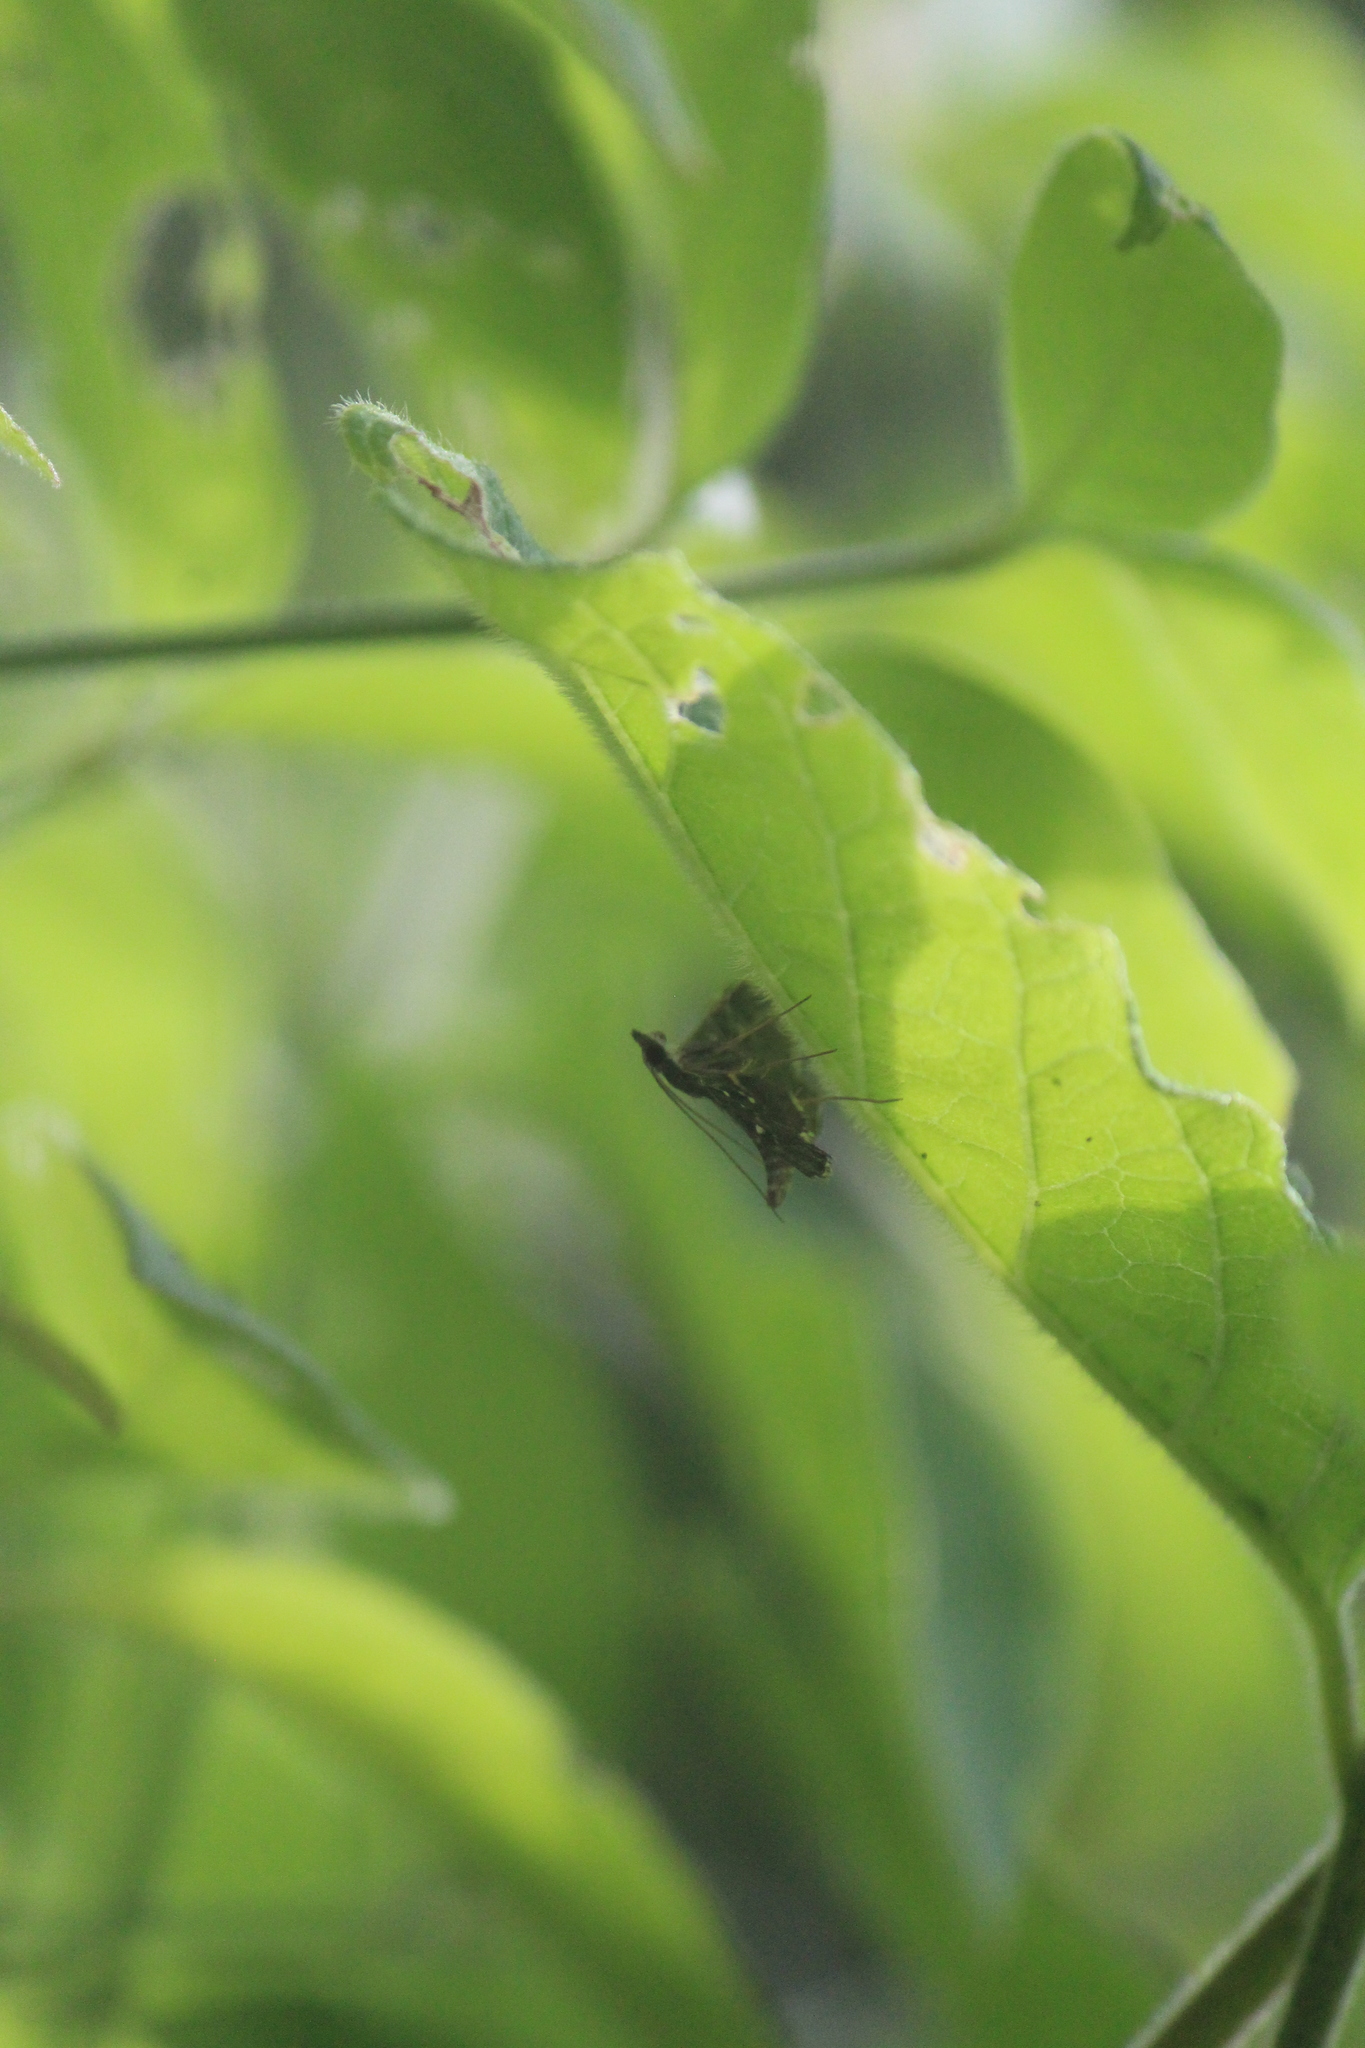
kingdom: Animalia
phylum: Arthropoda
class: Insecta
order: Lepidoptera
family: Crambidae
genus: Diathrausta
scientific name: Diathrausta harlequinalis
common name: Harlequin webworm moth
